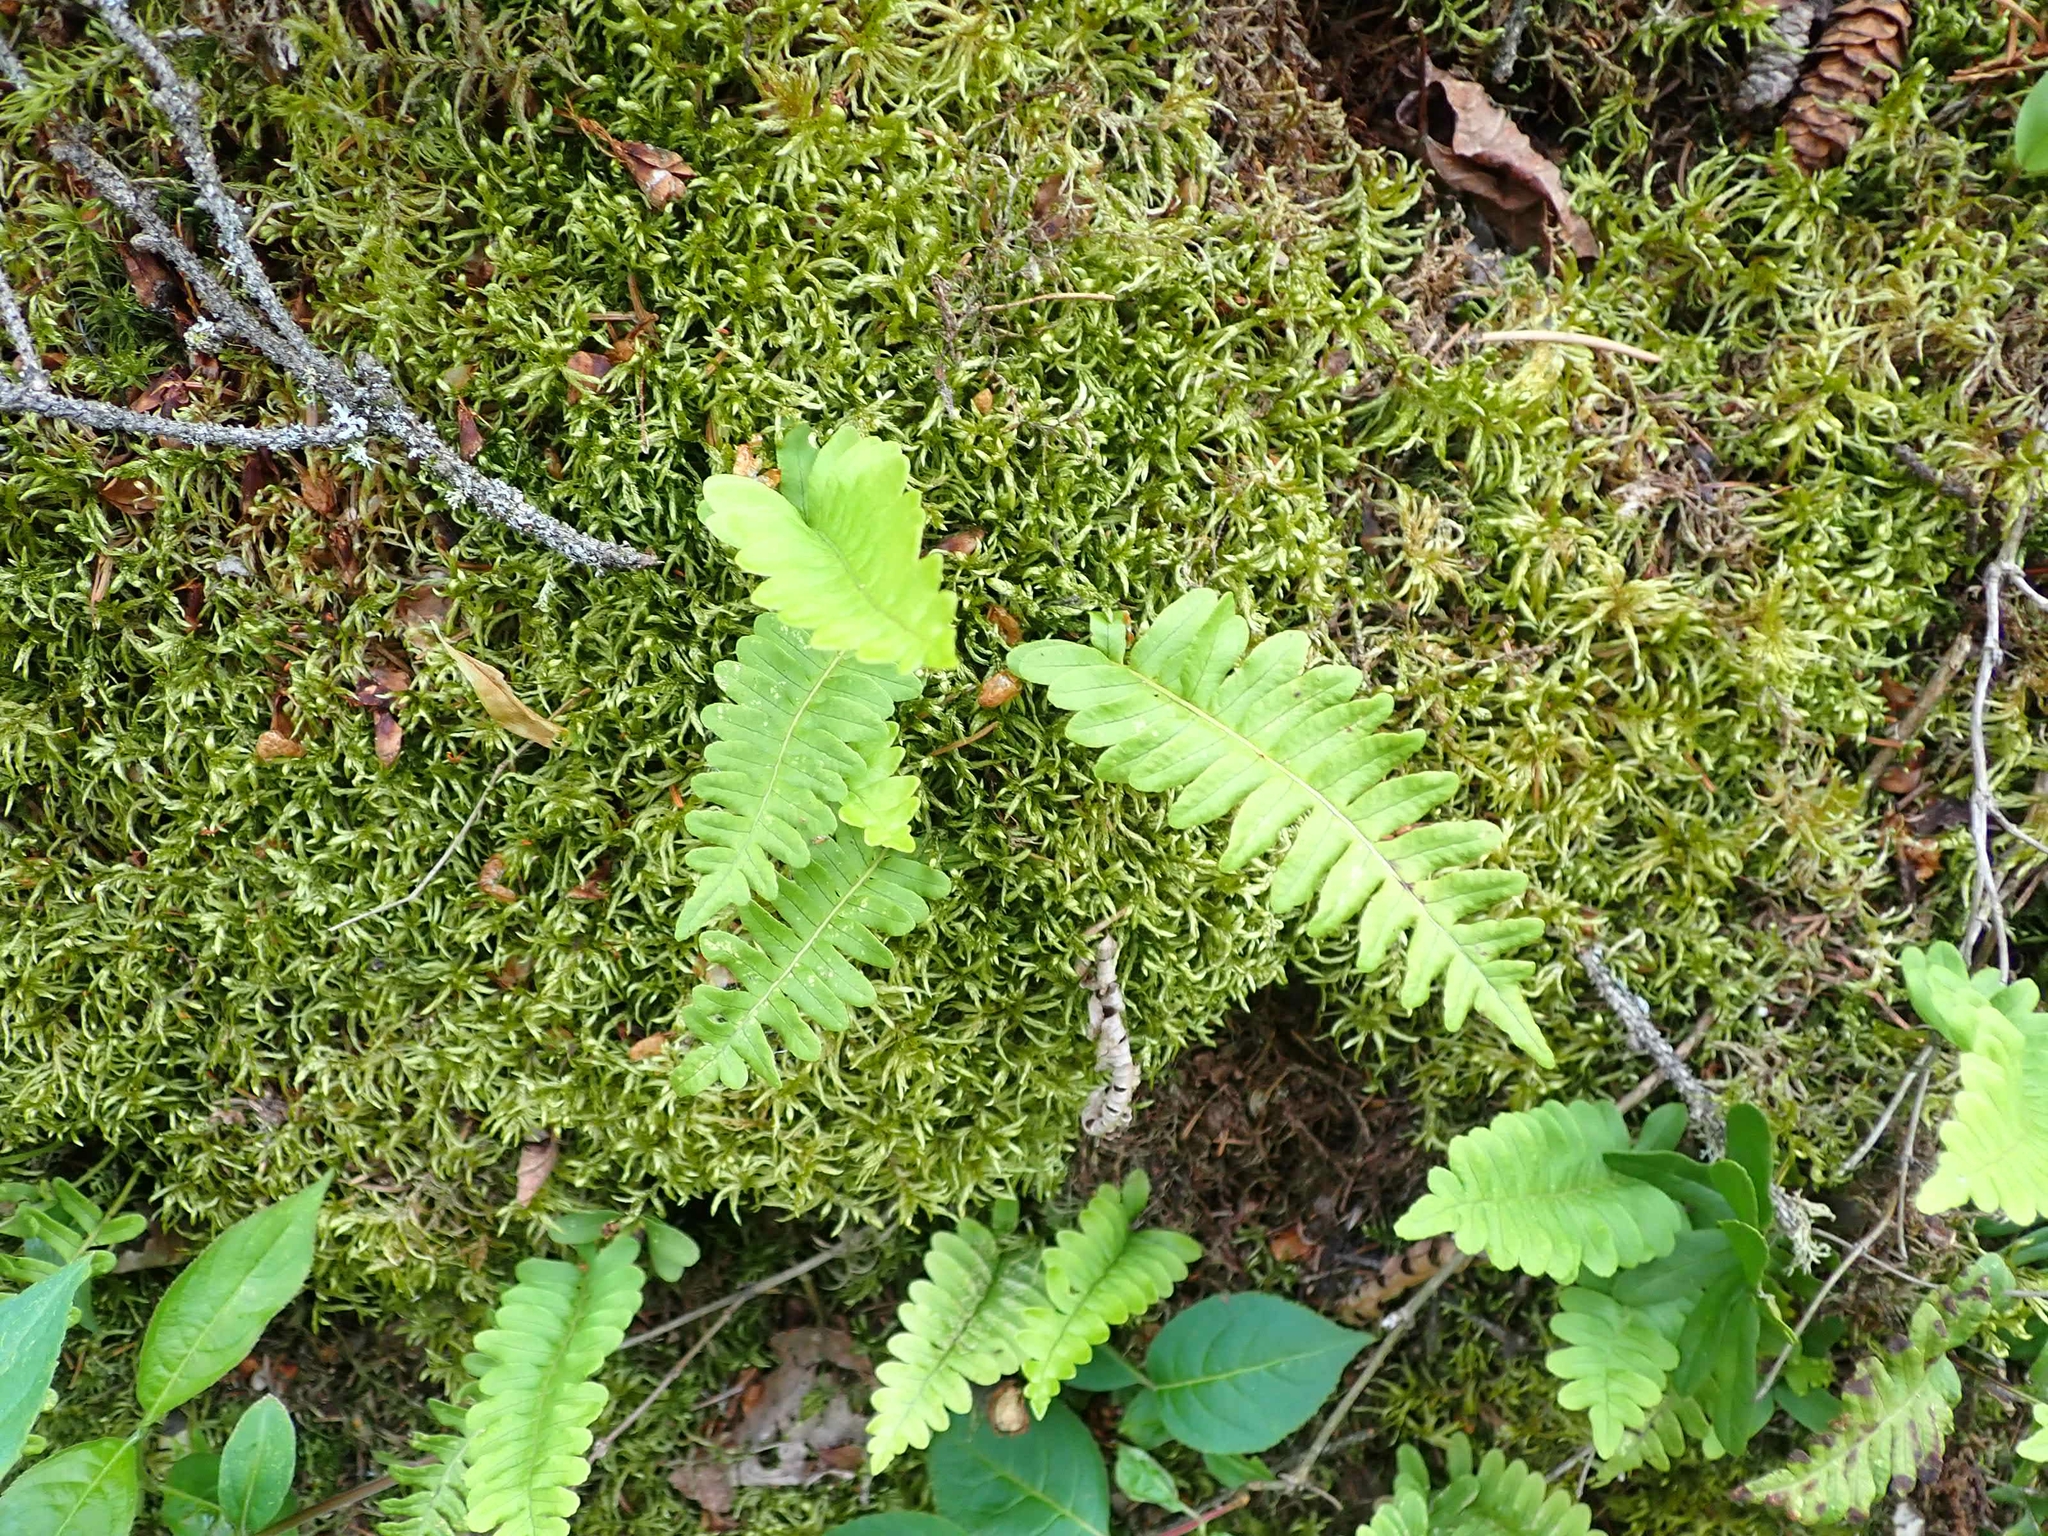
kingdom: Plantae
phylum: Tracheophyta
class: Polypodiopsida
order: Polypodiales
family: Polypodiaceae
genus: Polypodium
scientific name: Polypodium virginianum
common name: American wall fern
